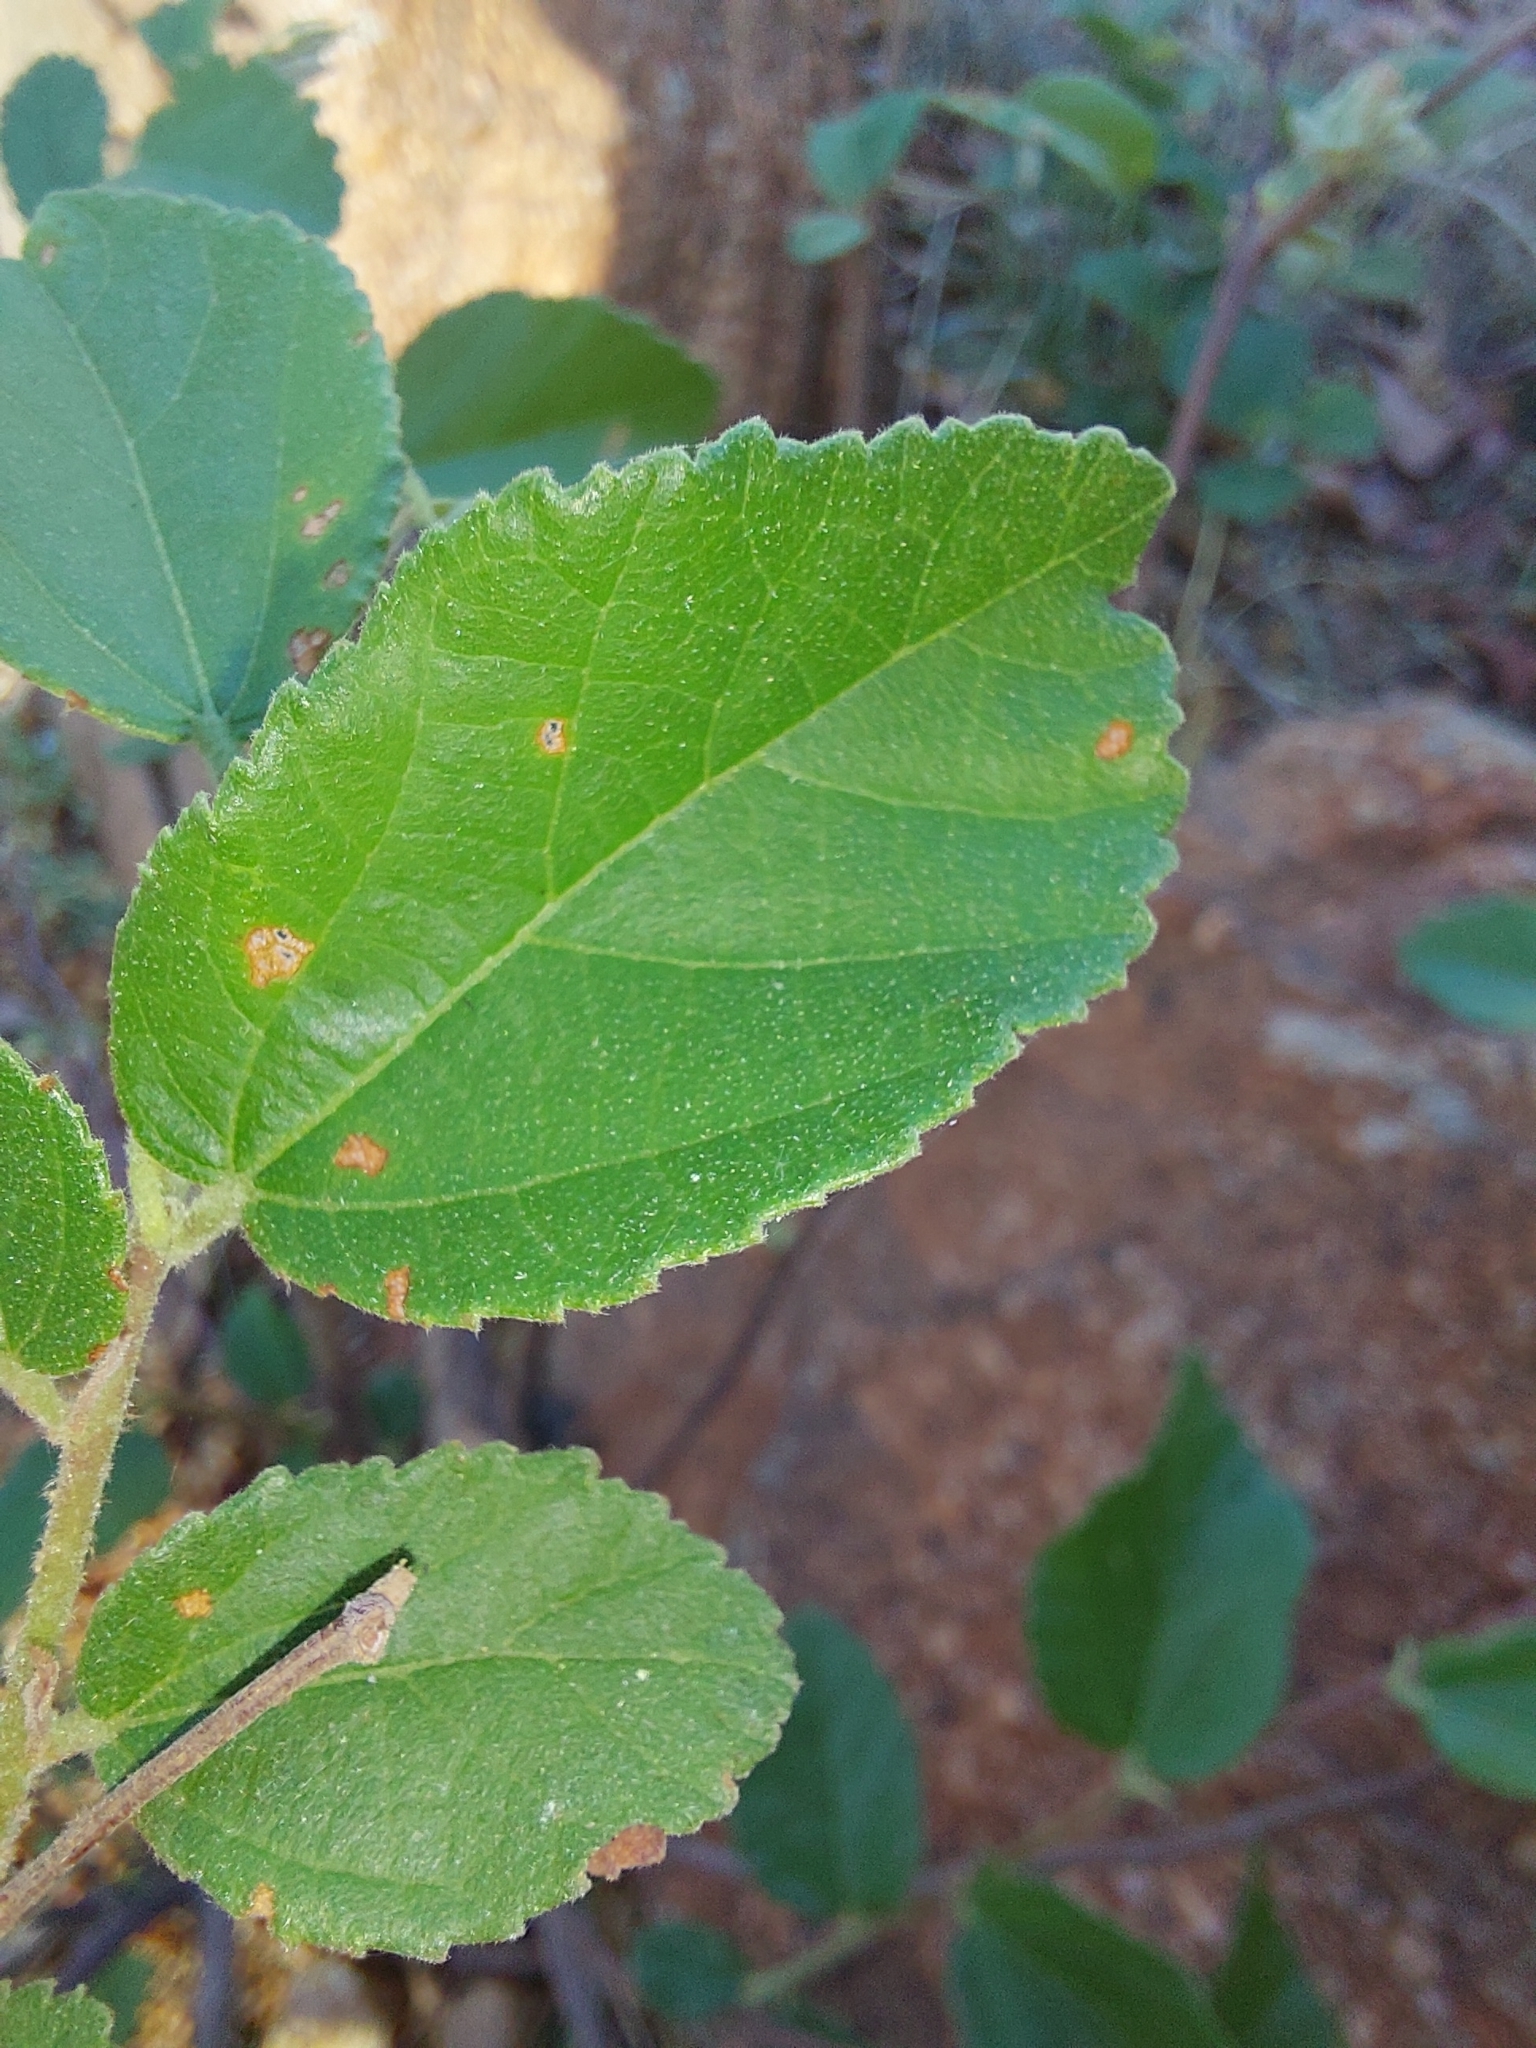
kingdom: Plantae
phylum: Tracheophyta
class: Magnoliopsida
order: Malvales
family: Malvaceae
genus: Grewia
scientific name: Grewia monticola
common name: Grey raisin
